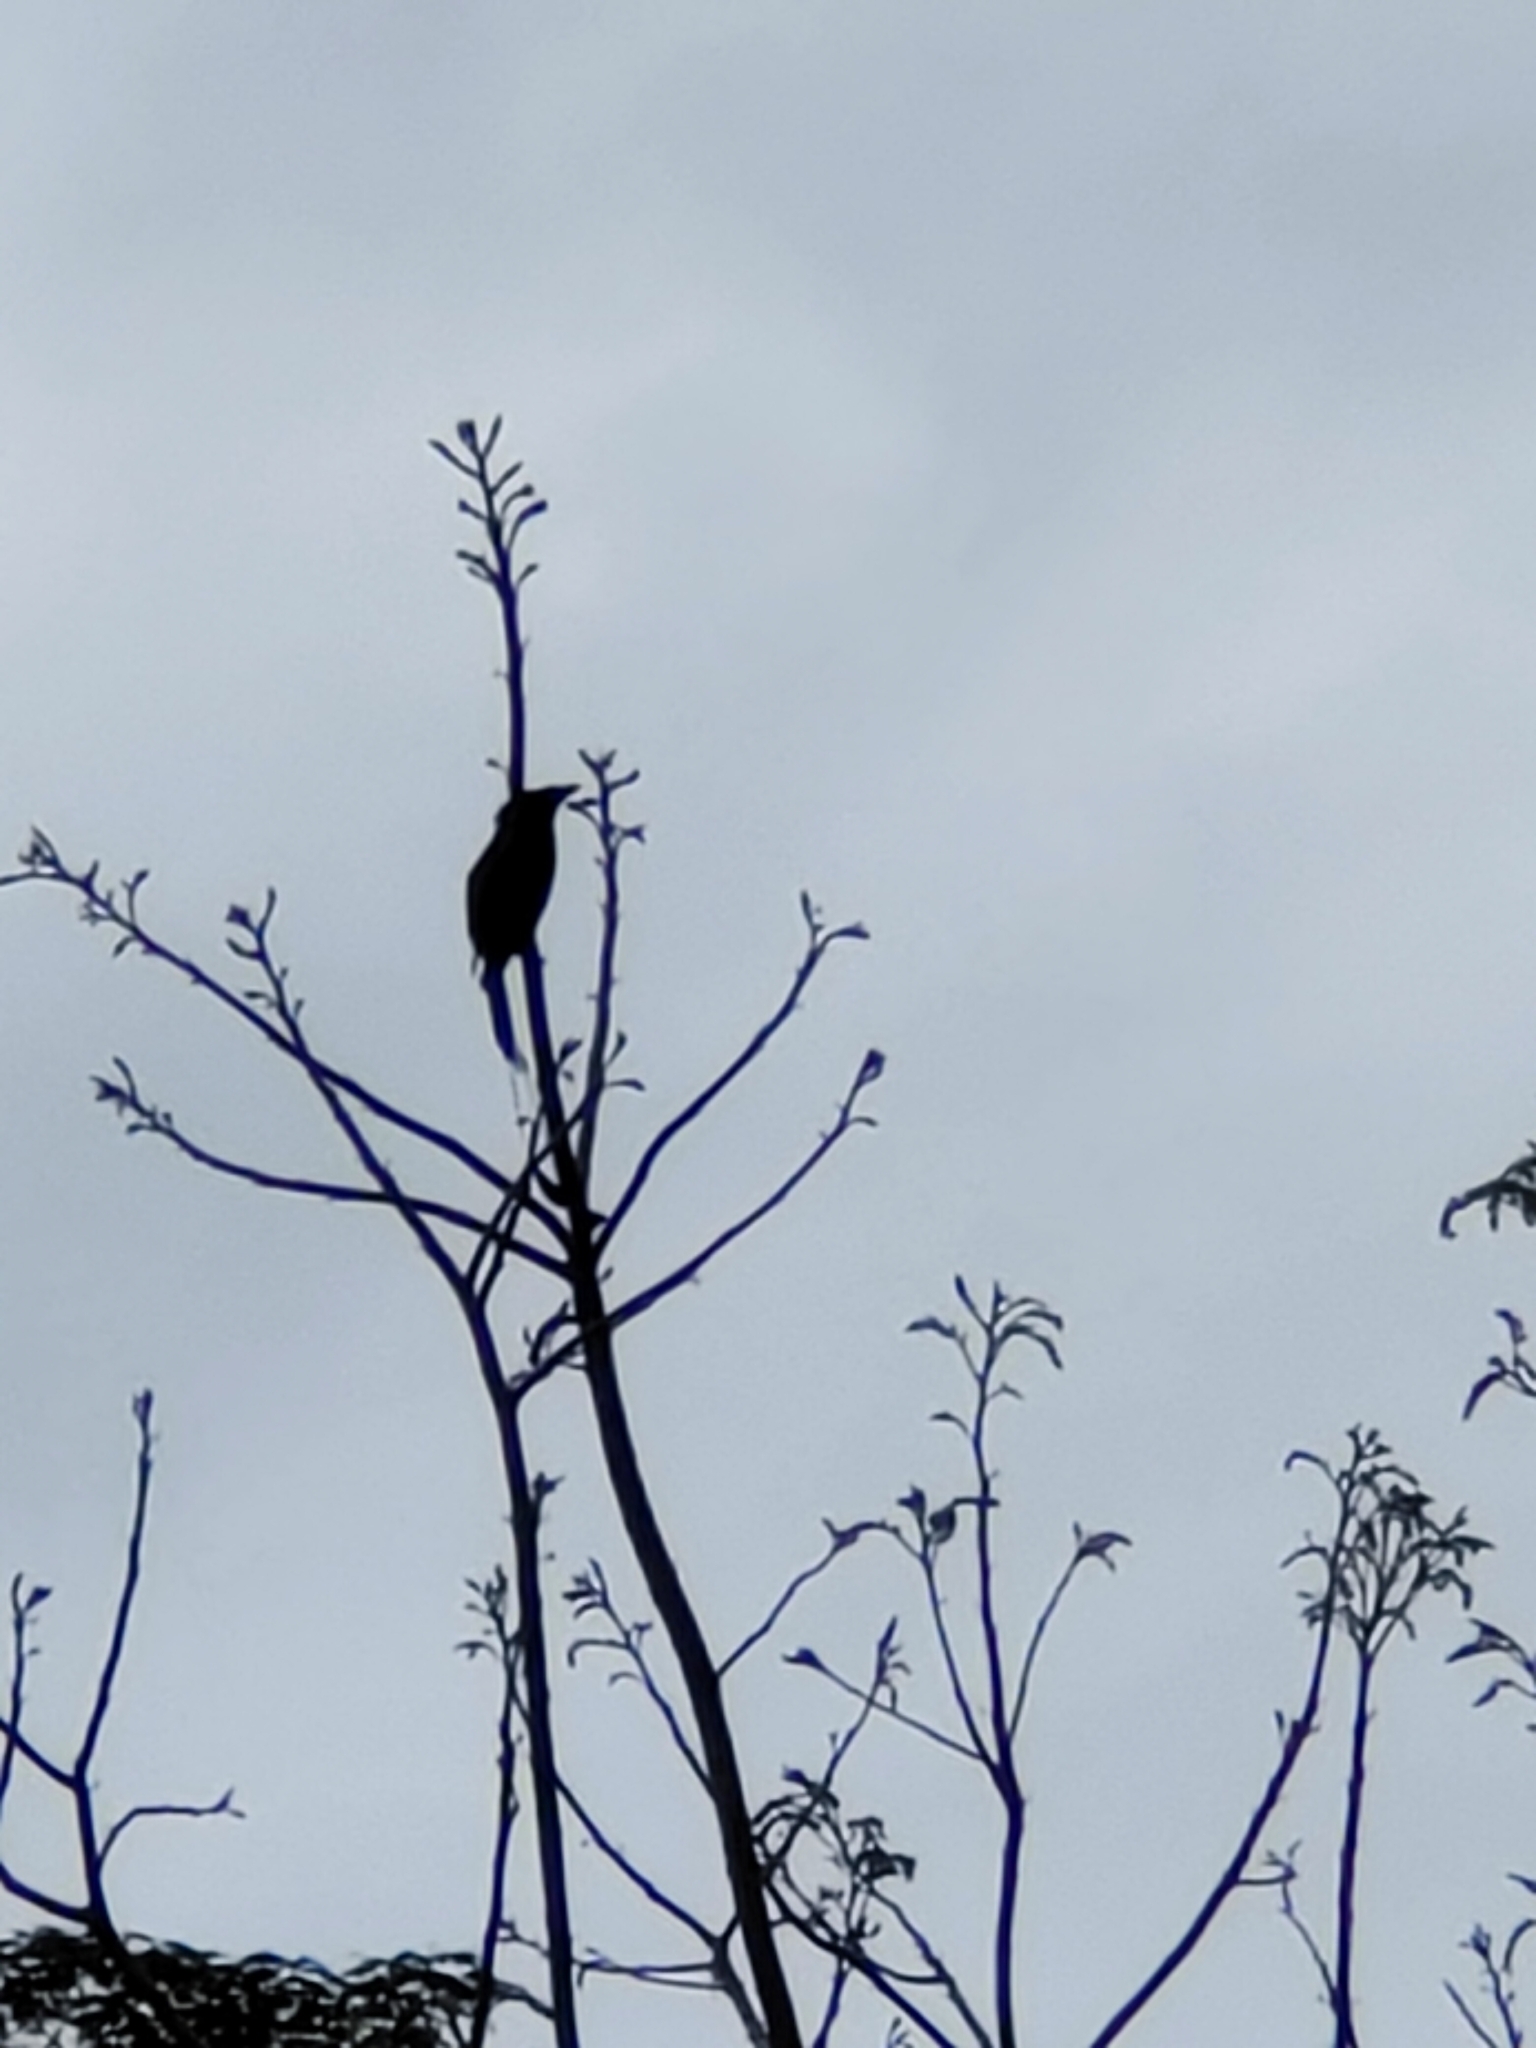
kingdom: Animalia
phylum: Chordata
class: Aves
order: Passeriformes
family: Dicruridae
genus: Dicrurus
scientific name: Dicrurus paradiseus
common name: Greater racket-tailed drongo
